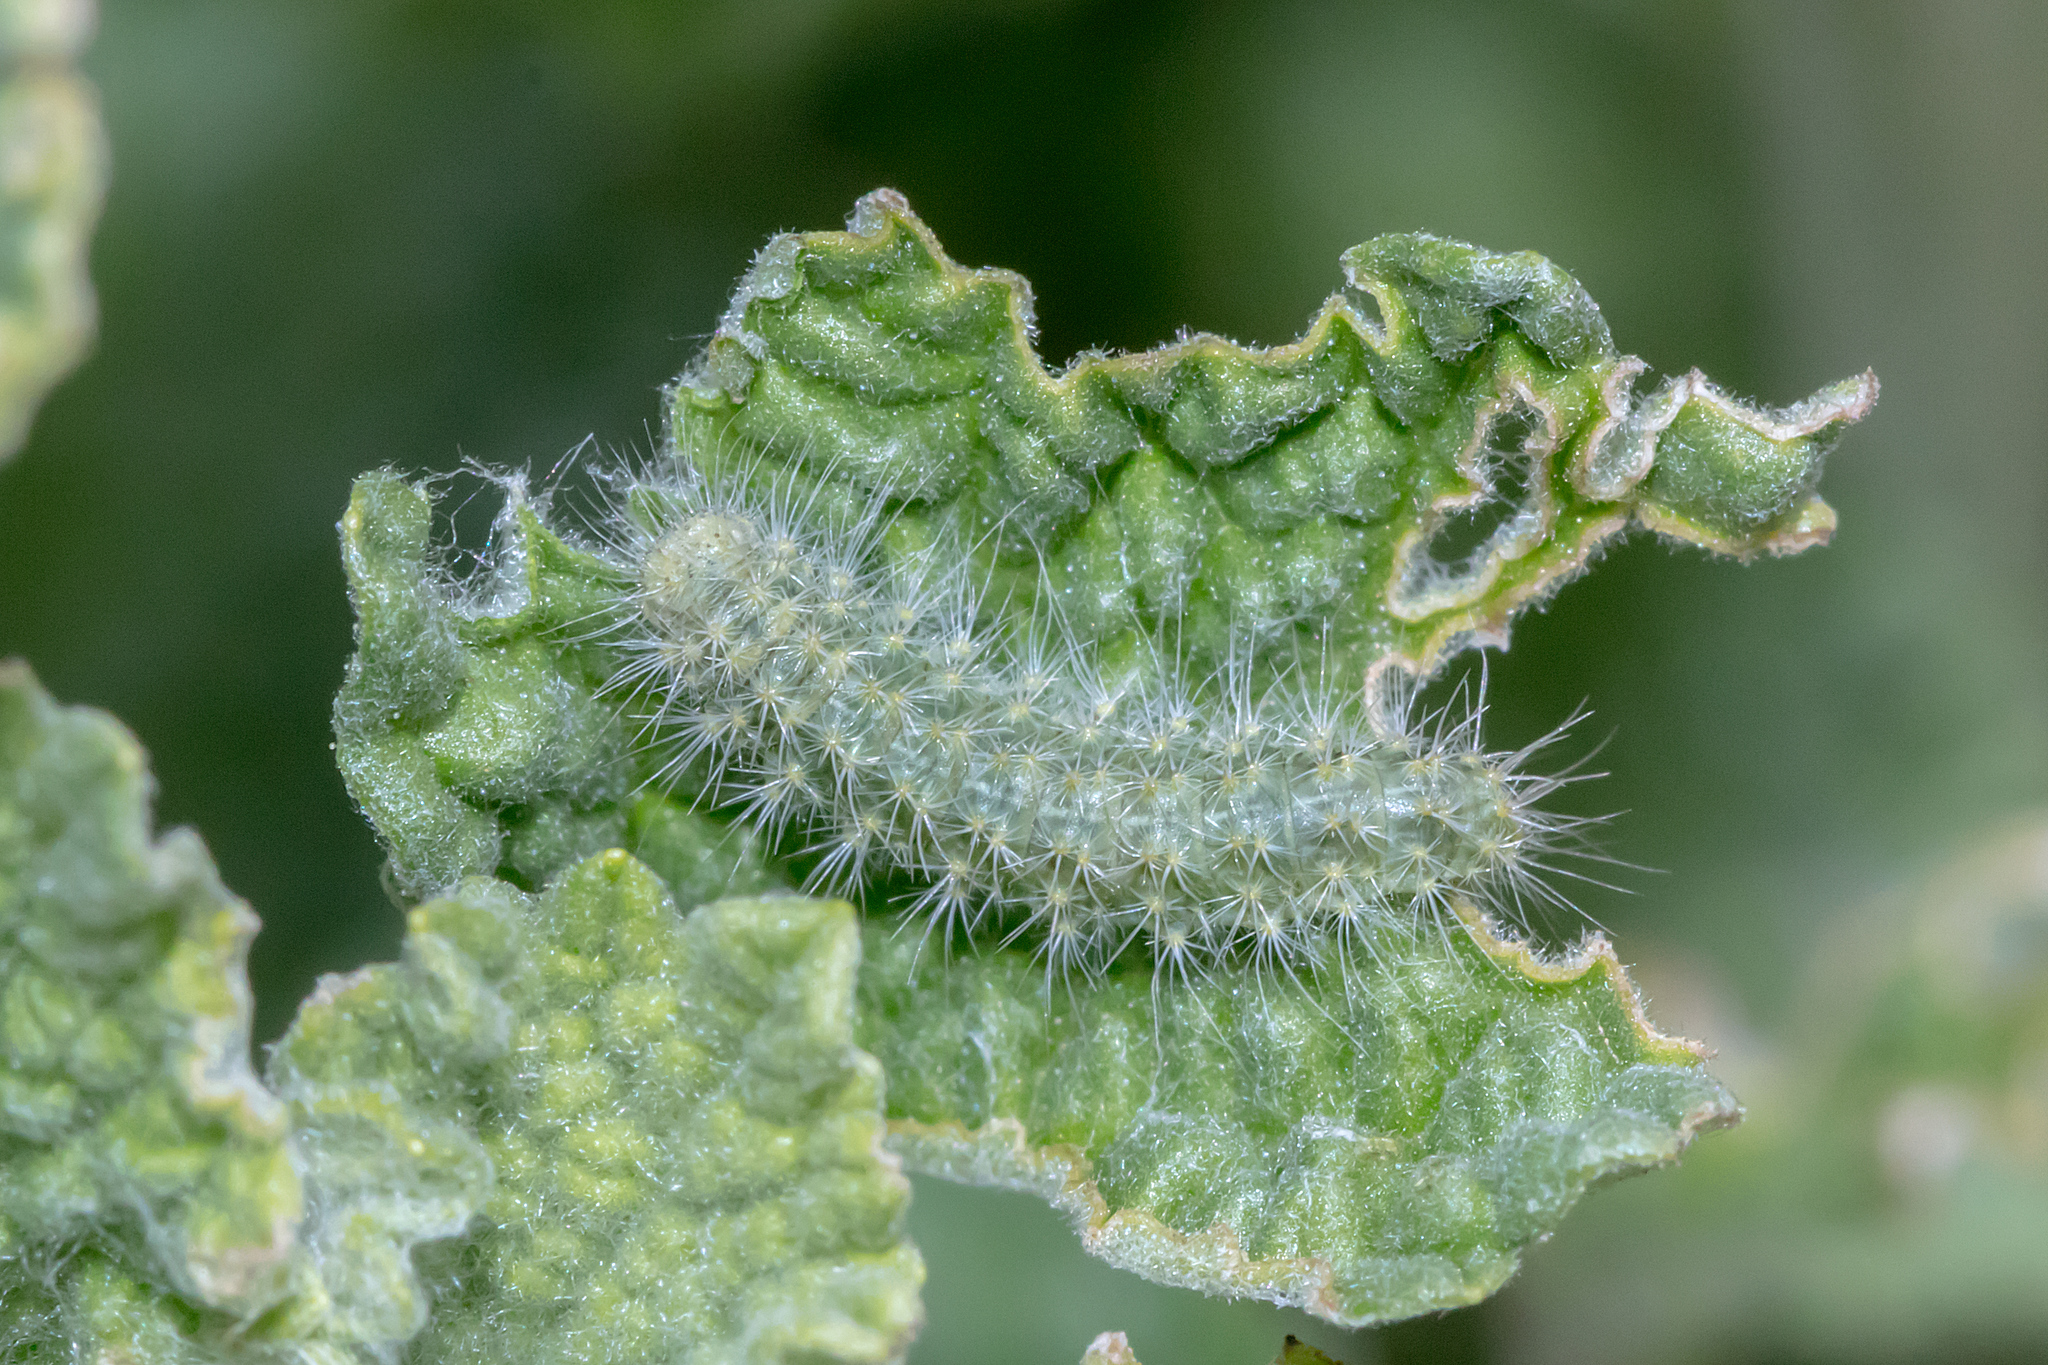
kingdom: Animalia
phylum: Arthropoda
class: Insecta
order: Lepidoptera
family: Pterophoridae
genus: Wheeleria
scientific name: Wheeleria spilodactylus
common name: Horehound plume
